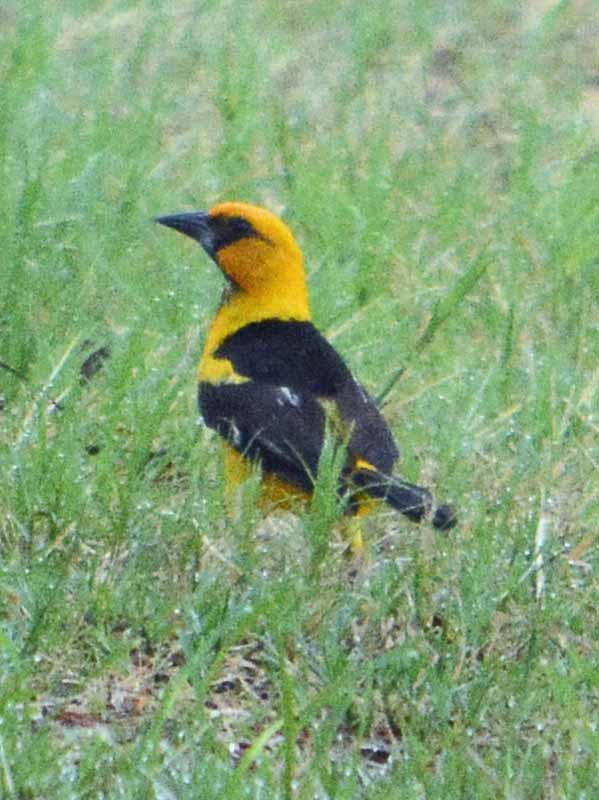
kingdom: Animalia
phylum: Chordata
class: Aves
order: Passeriformes
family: Icteridae
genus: Icterus
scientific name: Icterus gularis
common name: Altamira oriole
